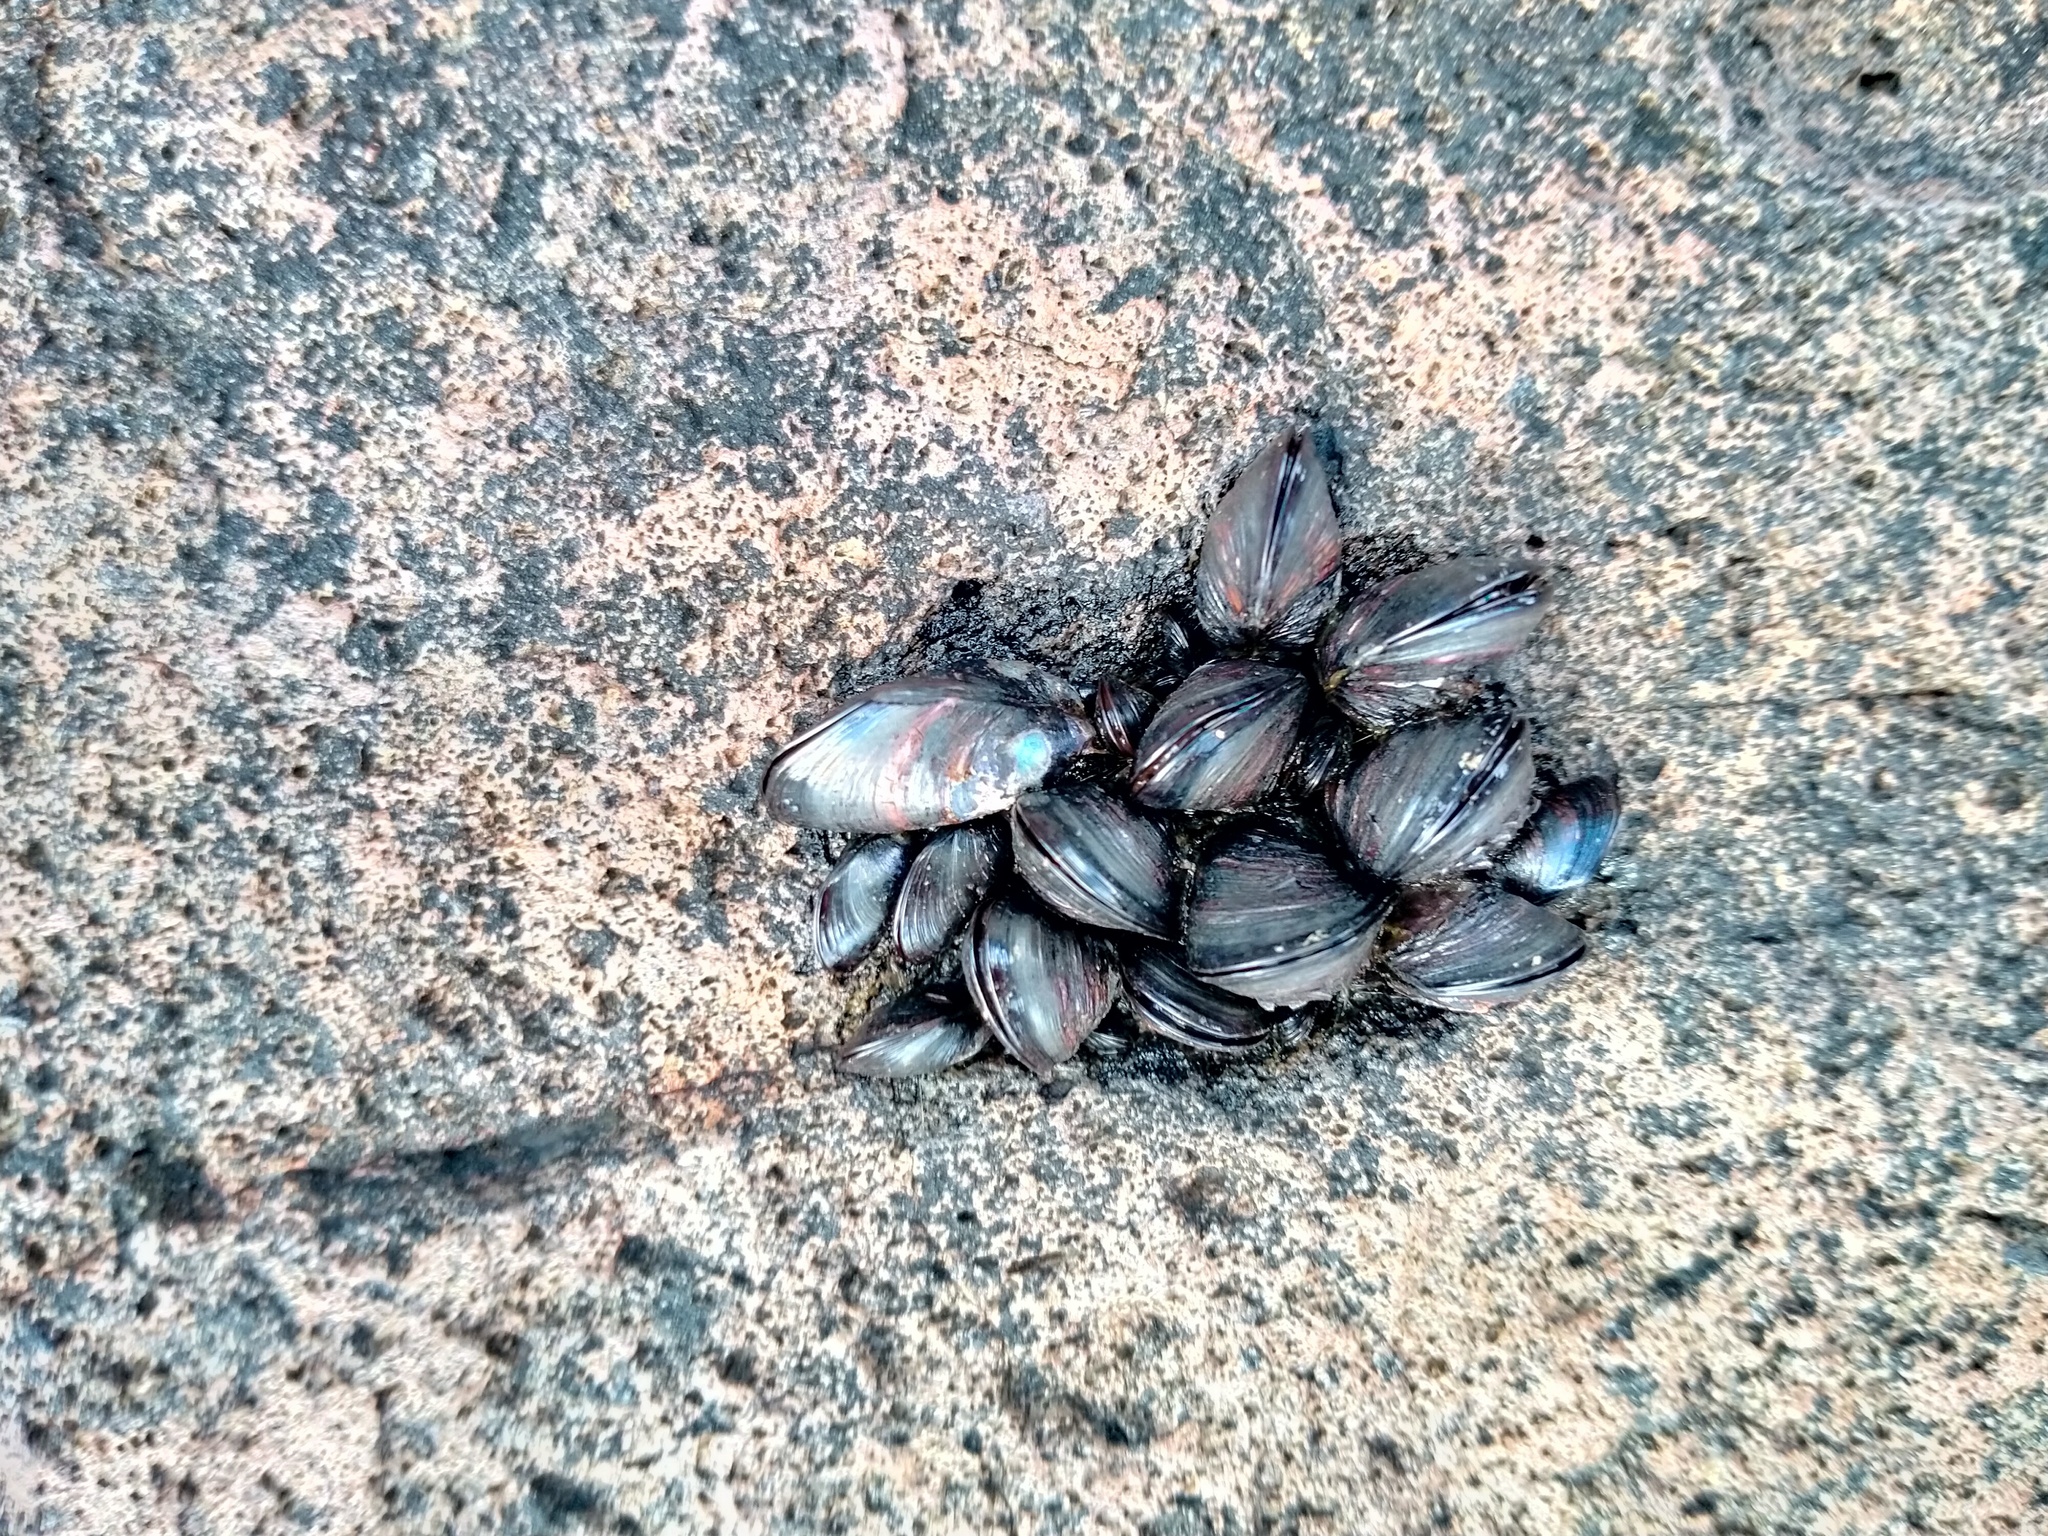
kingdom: Animalia
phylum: Mollusca
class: Bivalvia
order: Mytilida
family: Mytilidae
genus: Xenostrobus
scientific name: Xenostrobus neozelanicus
